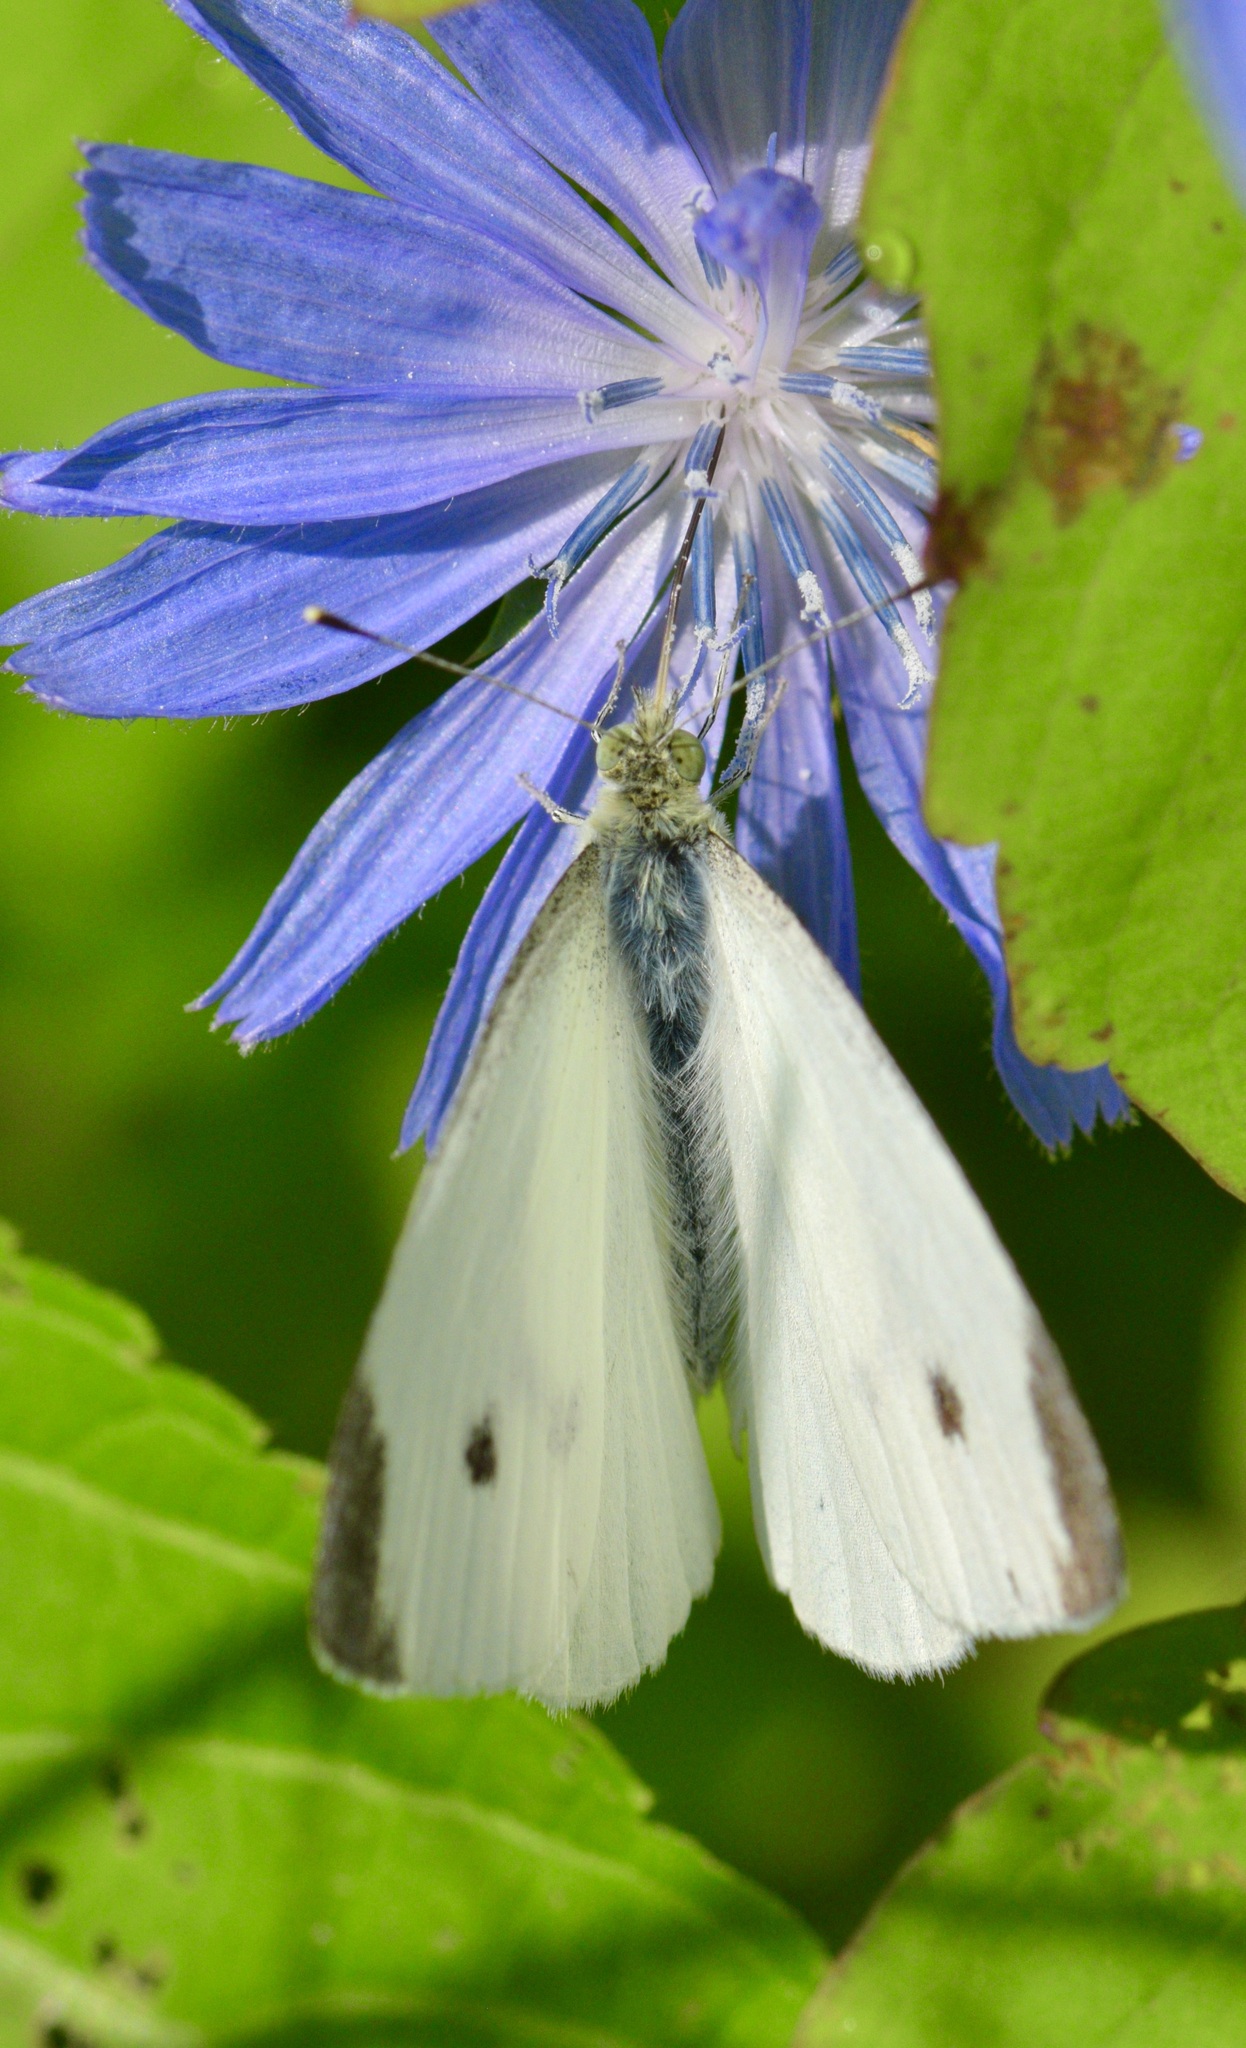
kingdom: Animalia
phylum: Arthropoda
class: Insecta
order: Lepidoptera
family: Pieridae
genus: Pieris
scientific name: Pieris rapae
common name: Small white
